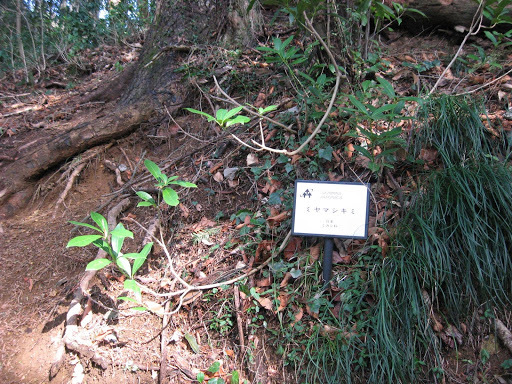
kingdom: Plantae
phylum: Tracheophyta
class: Magnoliopsida
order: Sapindales
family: Rutaceae
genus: Skimmia
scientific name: Skimmia japonica
